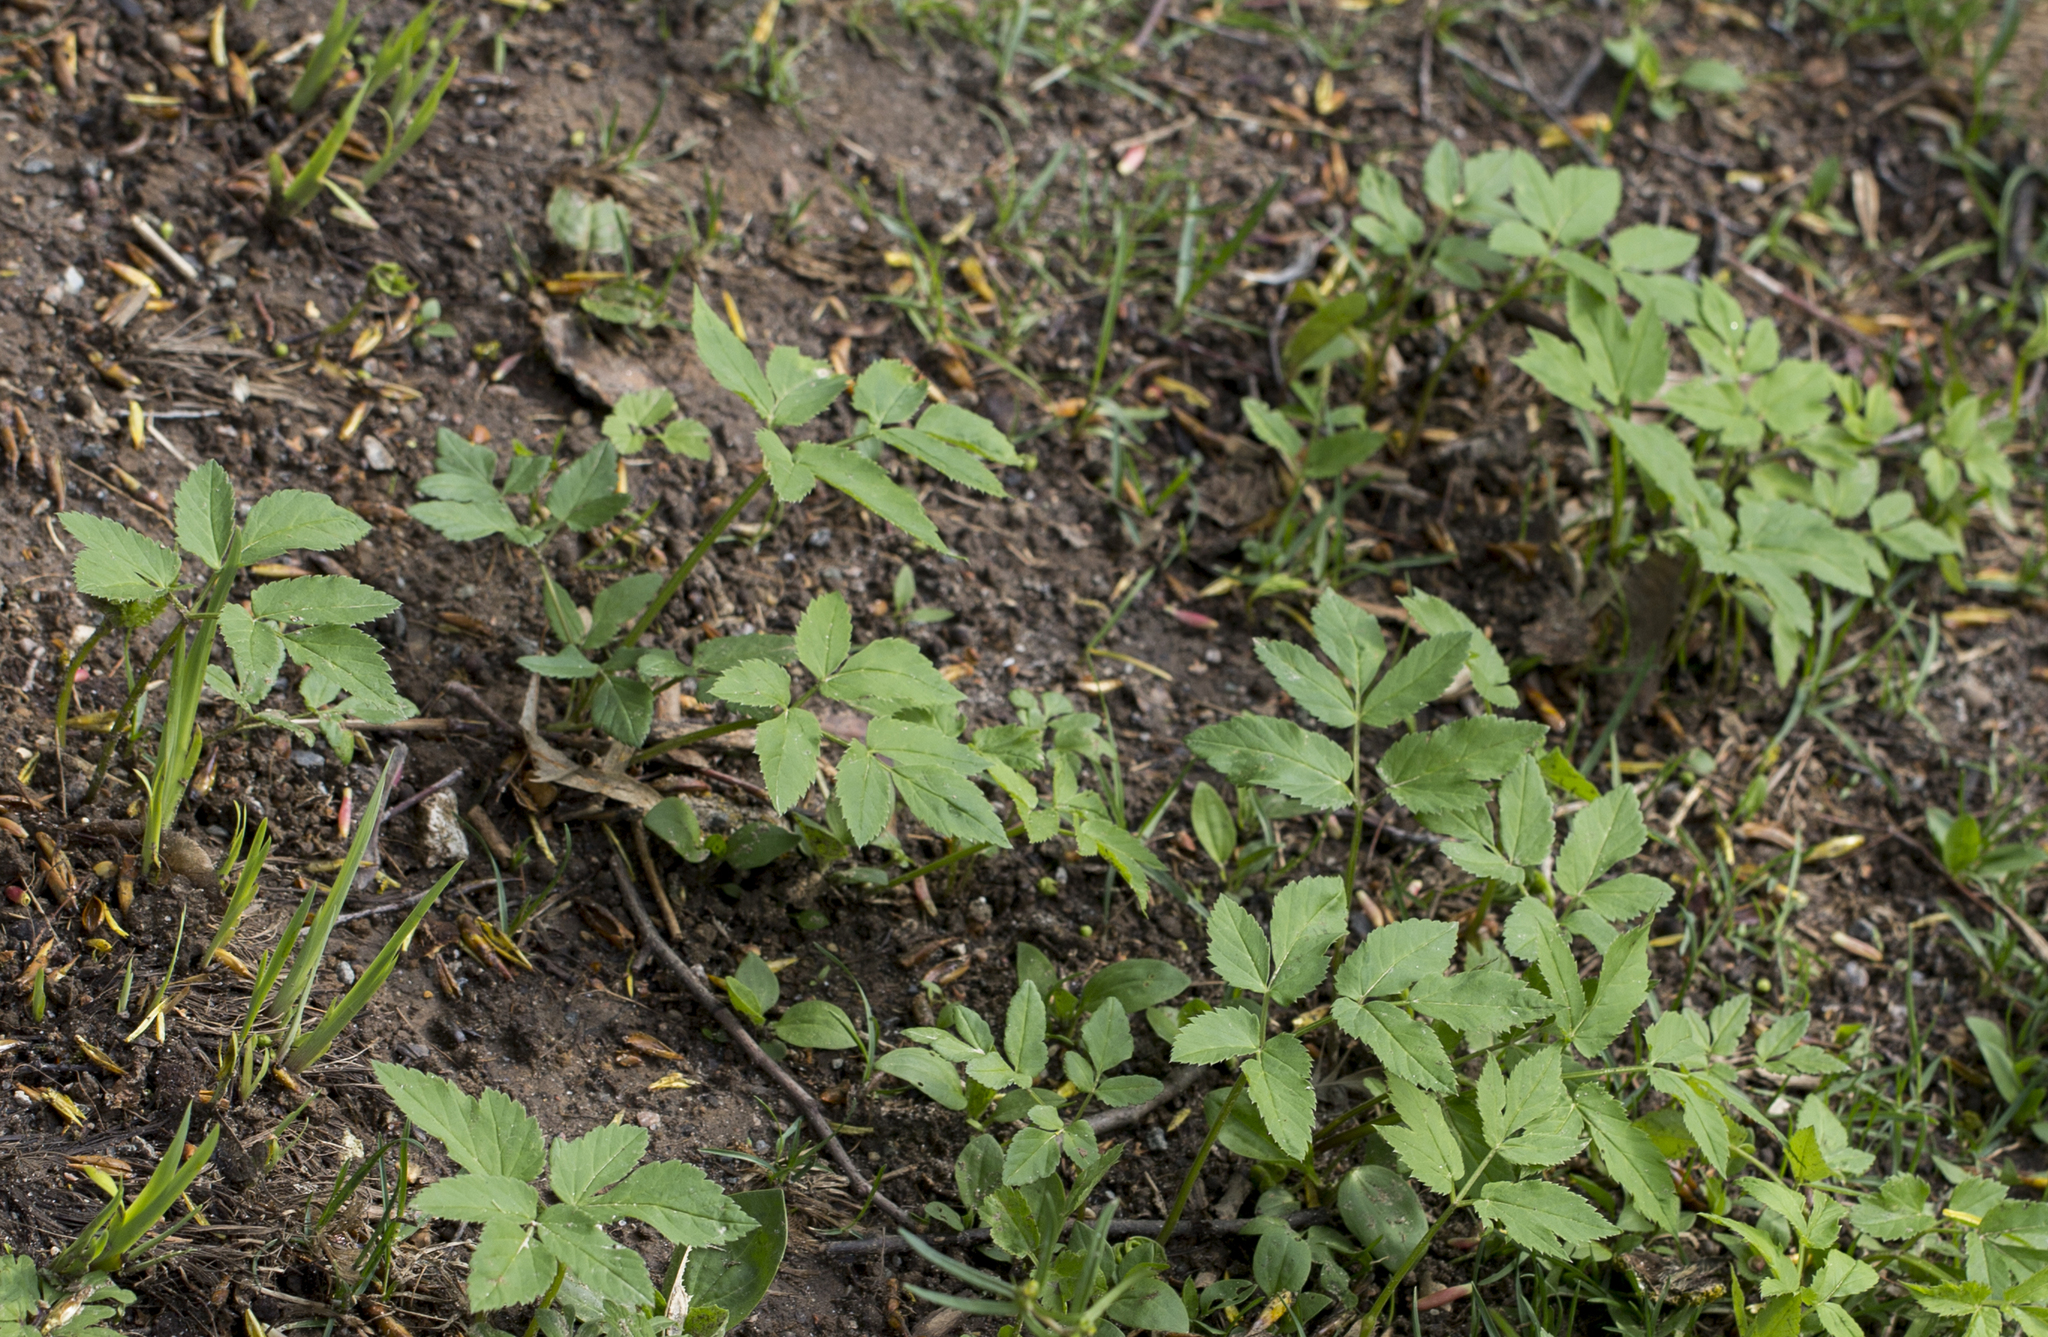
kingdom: Plantae
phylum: Tracheophyta
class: Magnoliopsida
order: Apiales
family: Apiaceae
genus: Aegopodium
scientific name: Aegopodium podagraria
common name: Ground-elder
